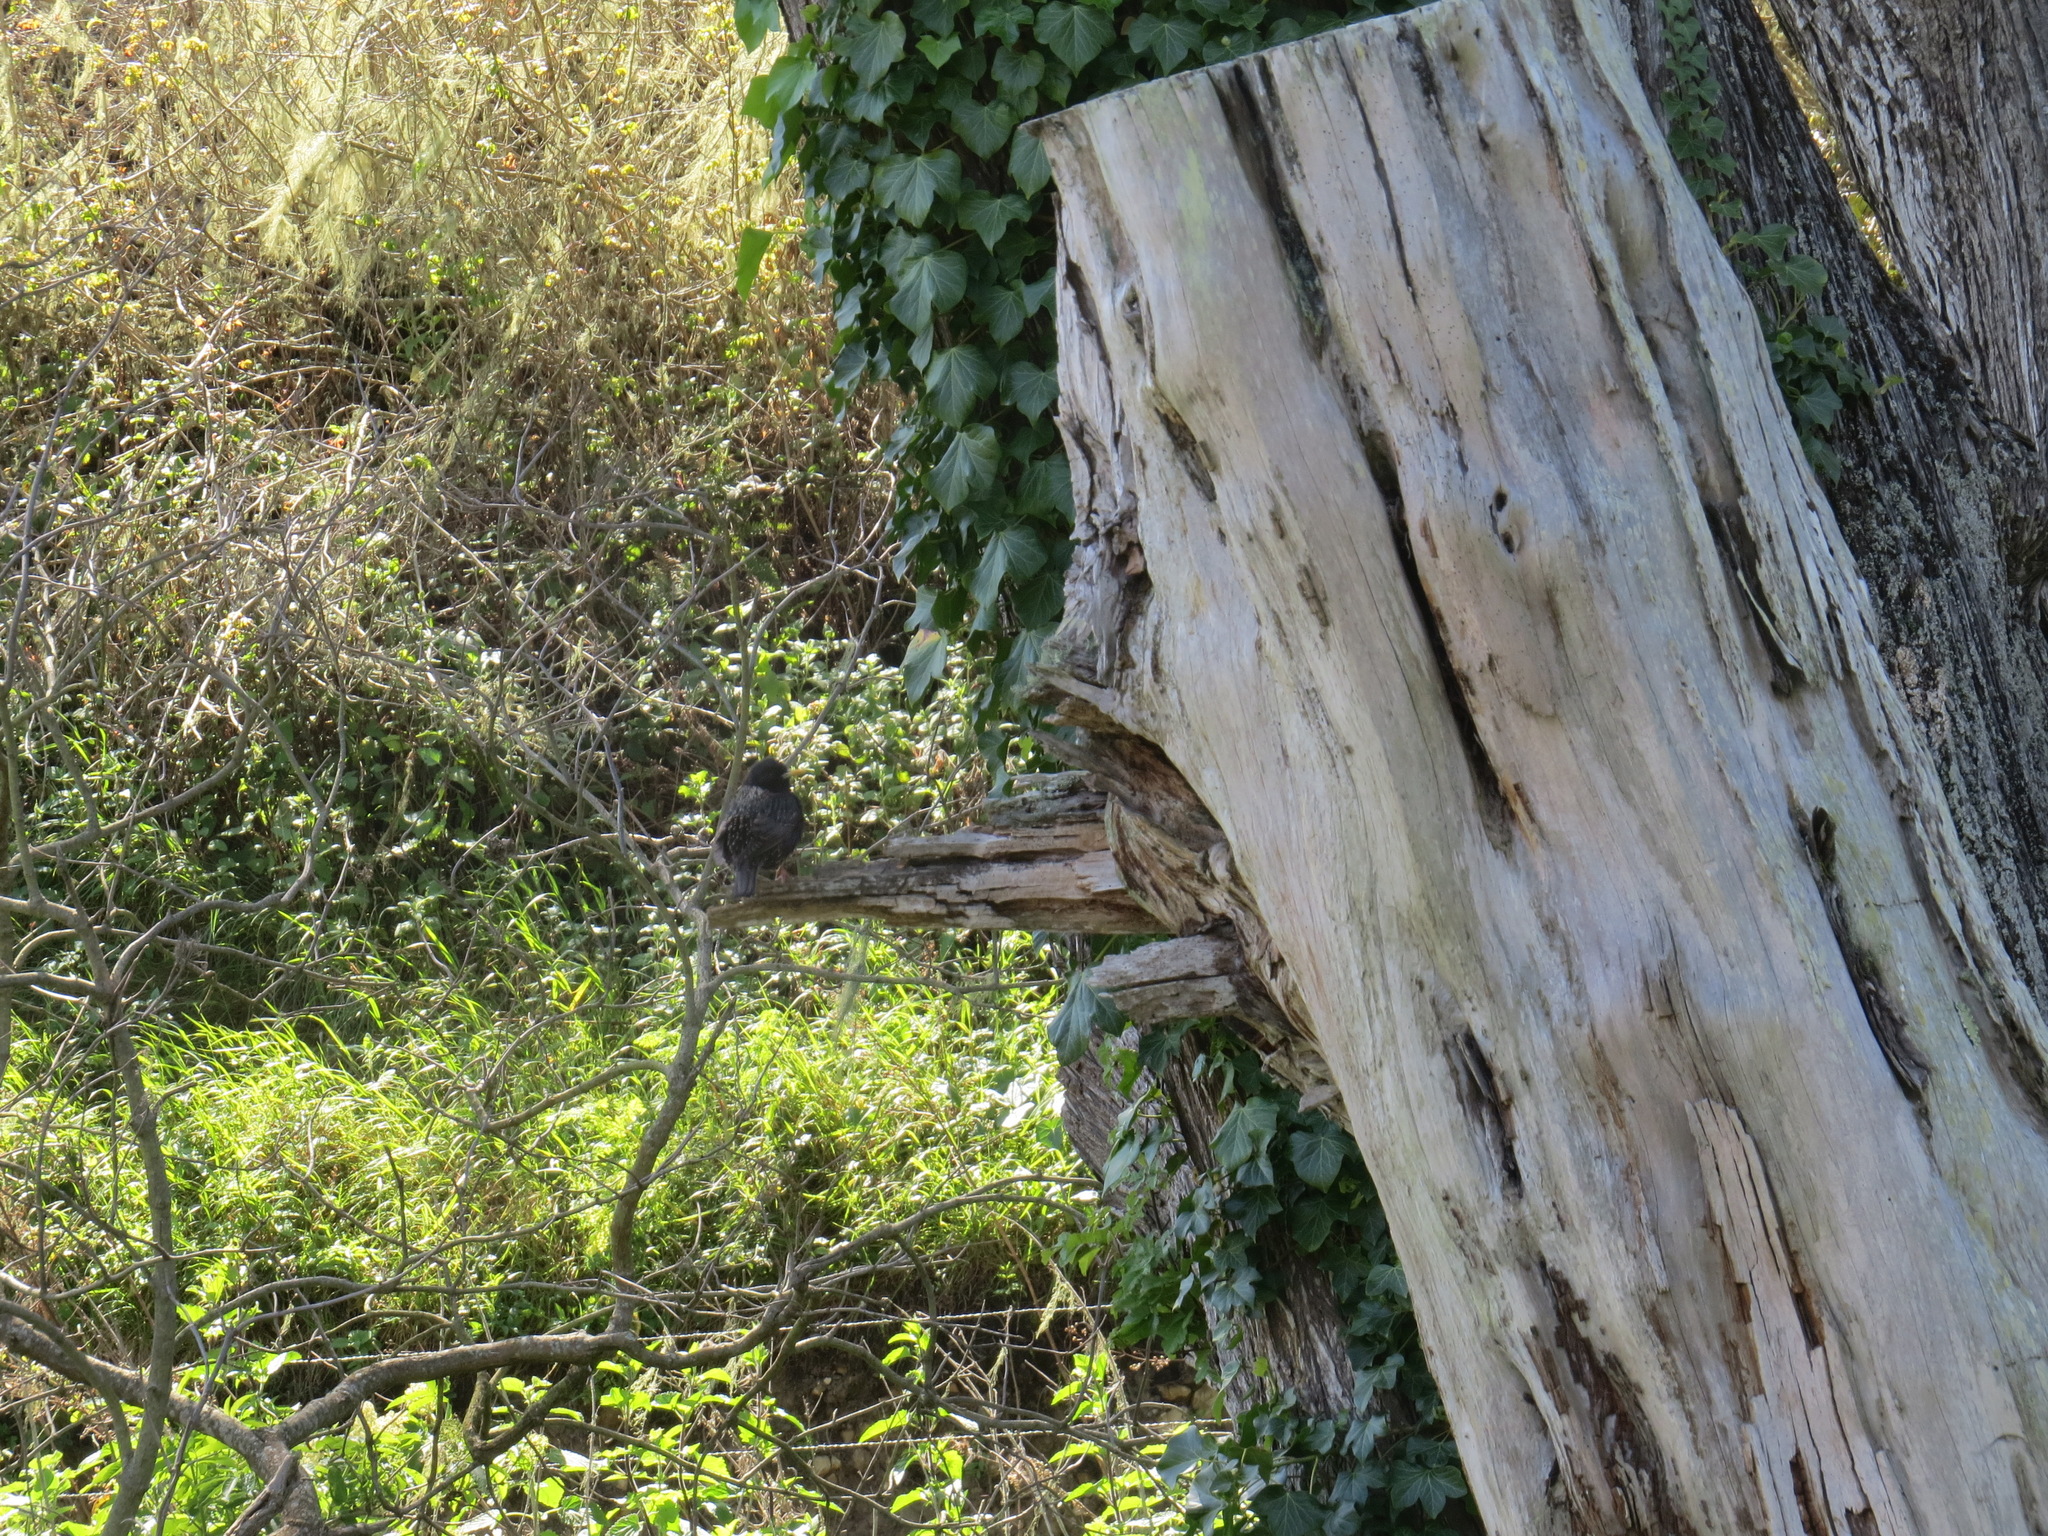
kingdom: Animalia
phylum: Chordata
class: Aves
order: Passeriformes
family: Sturnidae
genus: Sturnus
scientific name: Sturnus vulgaris
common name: Common starling
